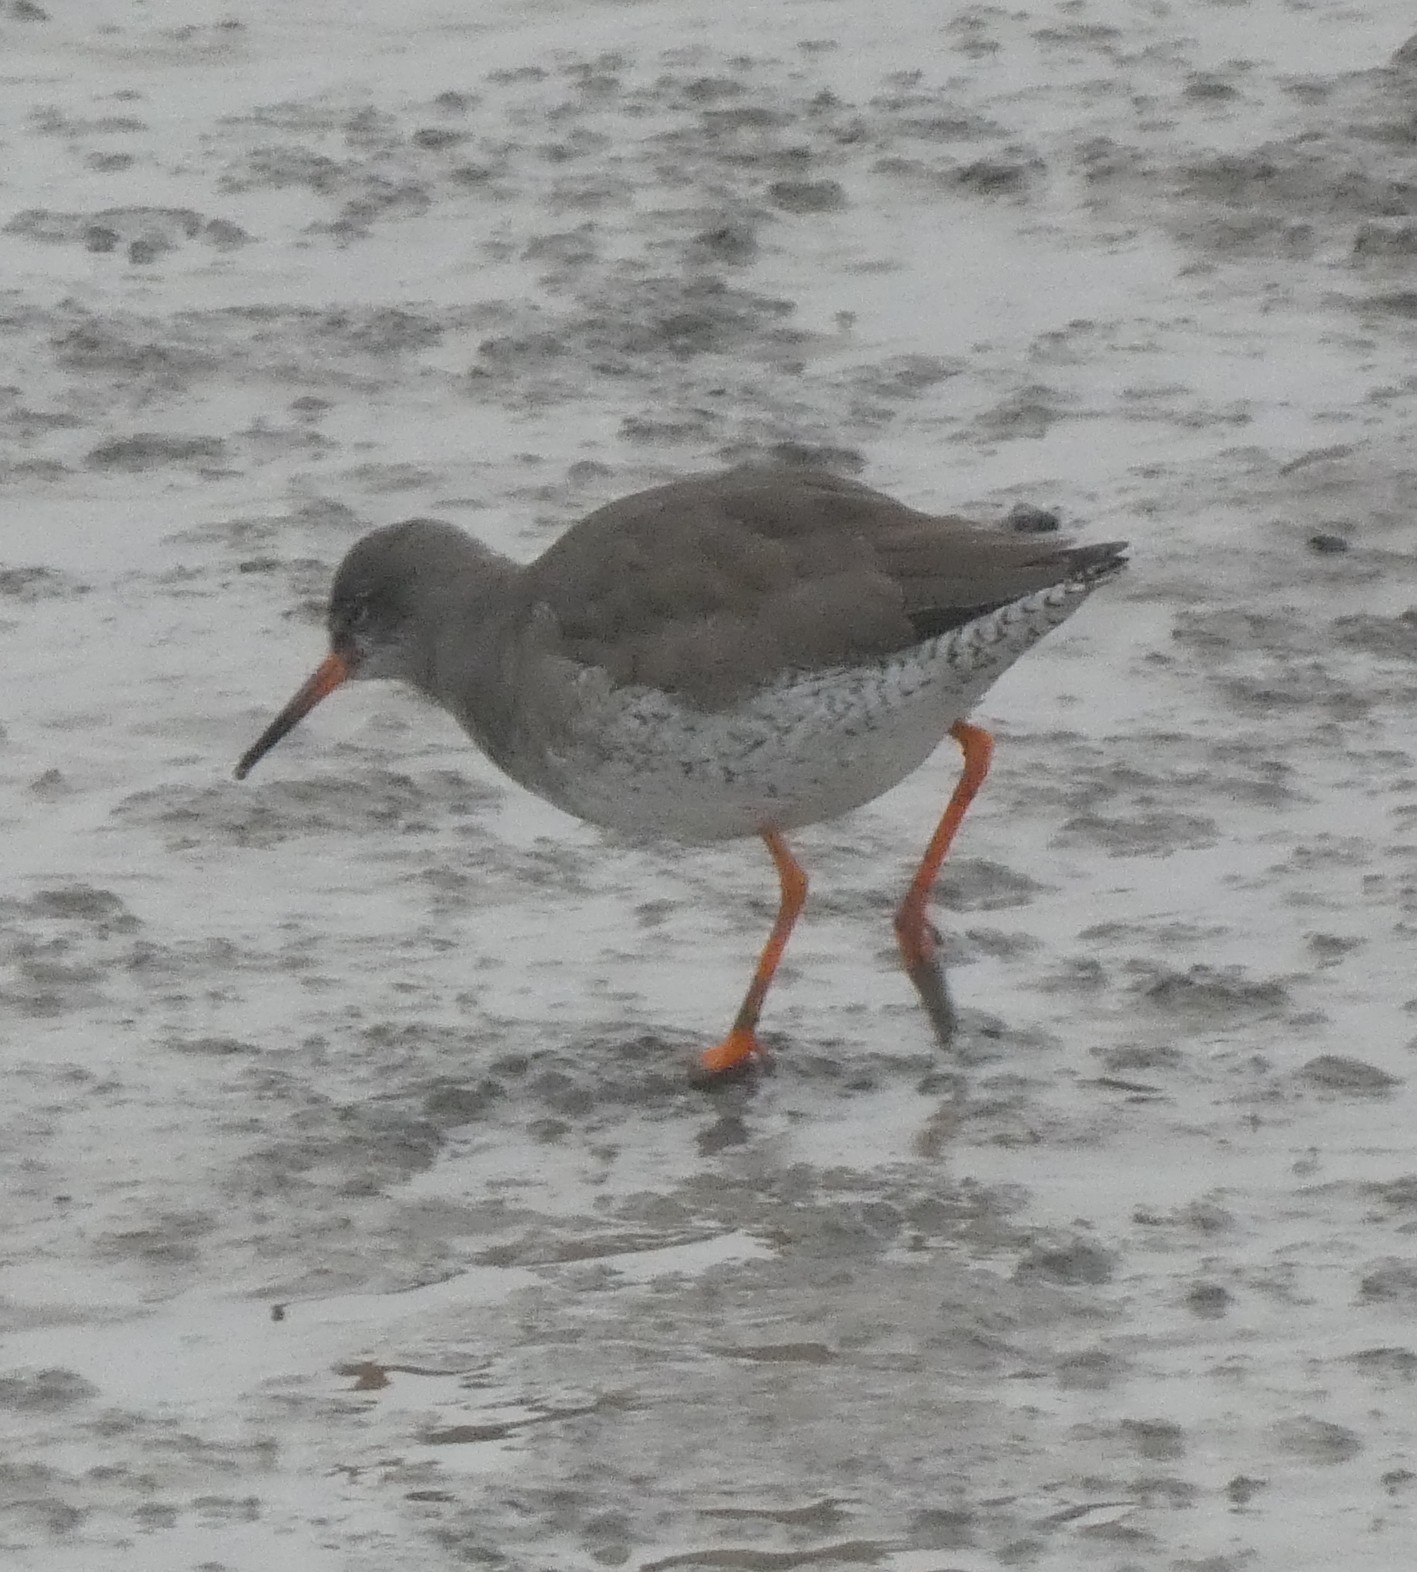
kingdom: Animalia
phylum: Chordata
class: Aves
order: Charadriiformes
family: Scolopacidae
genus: Tringa
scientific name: Tringa totanus
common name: Common redshank
